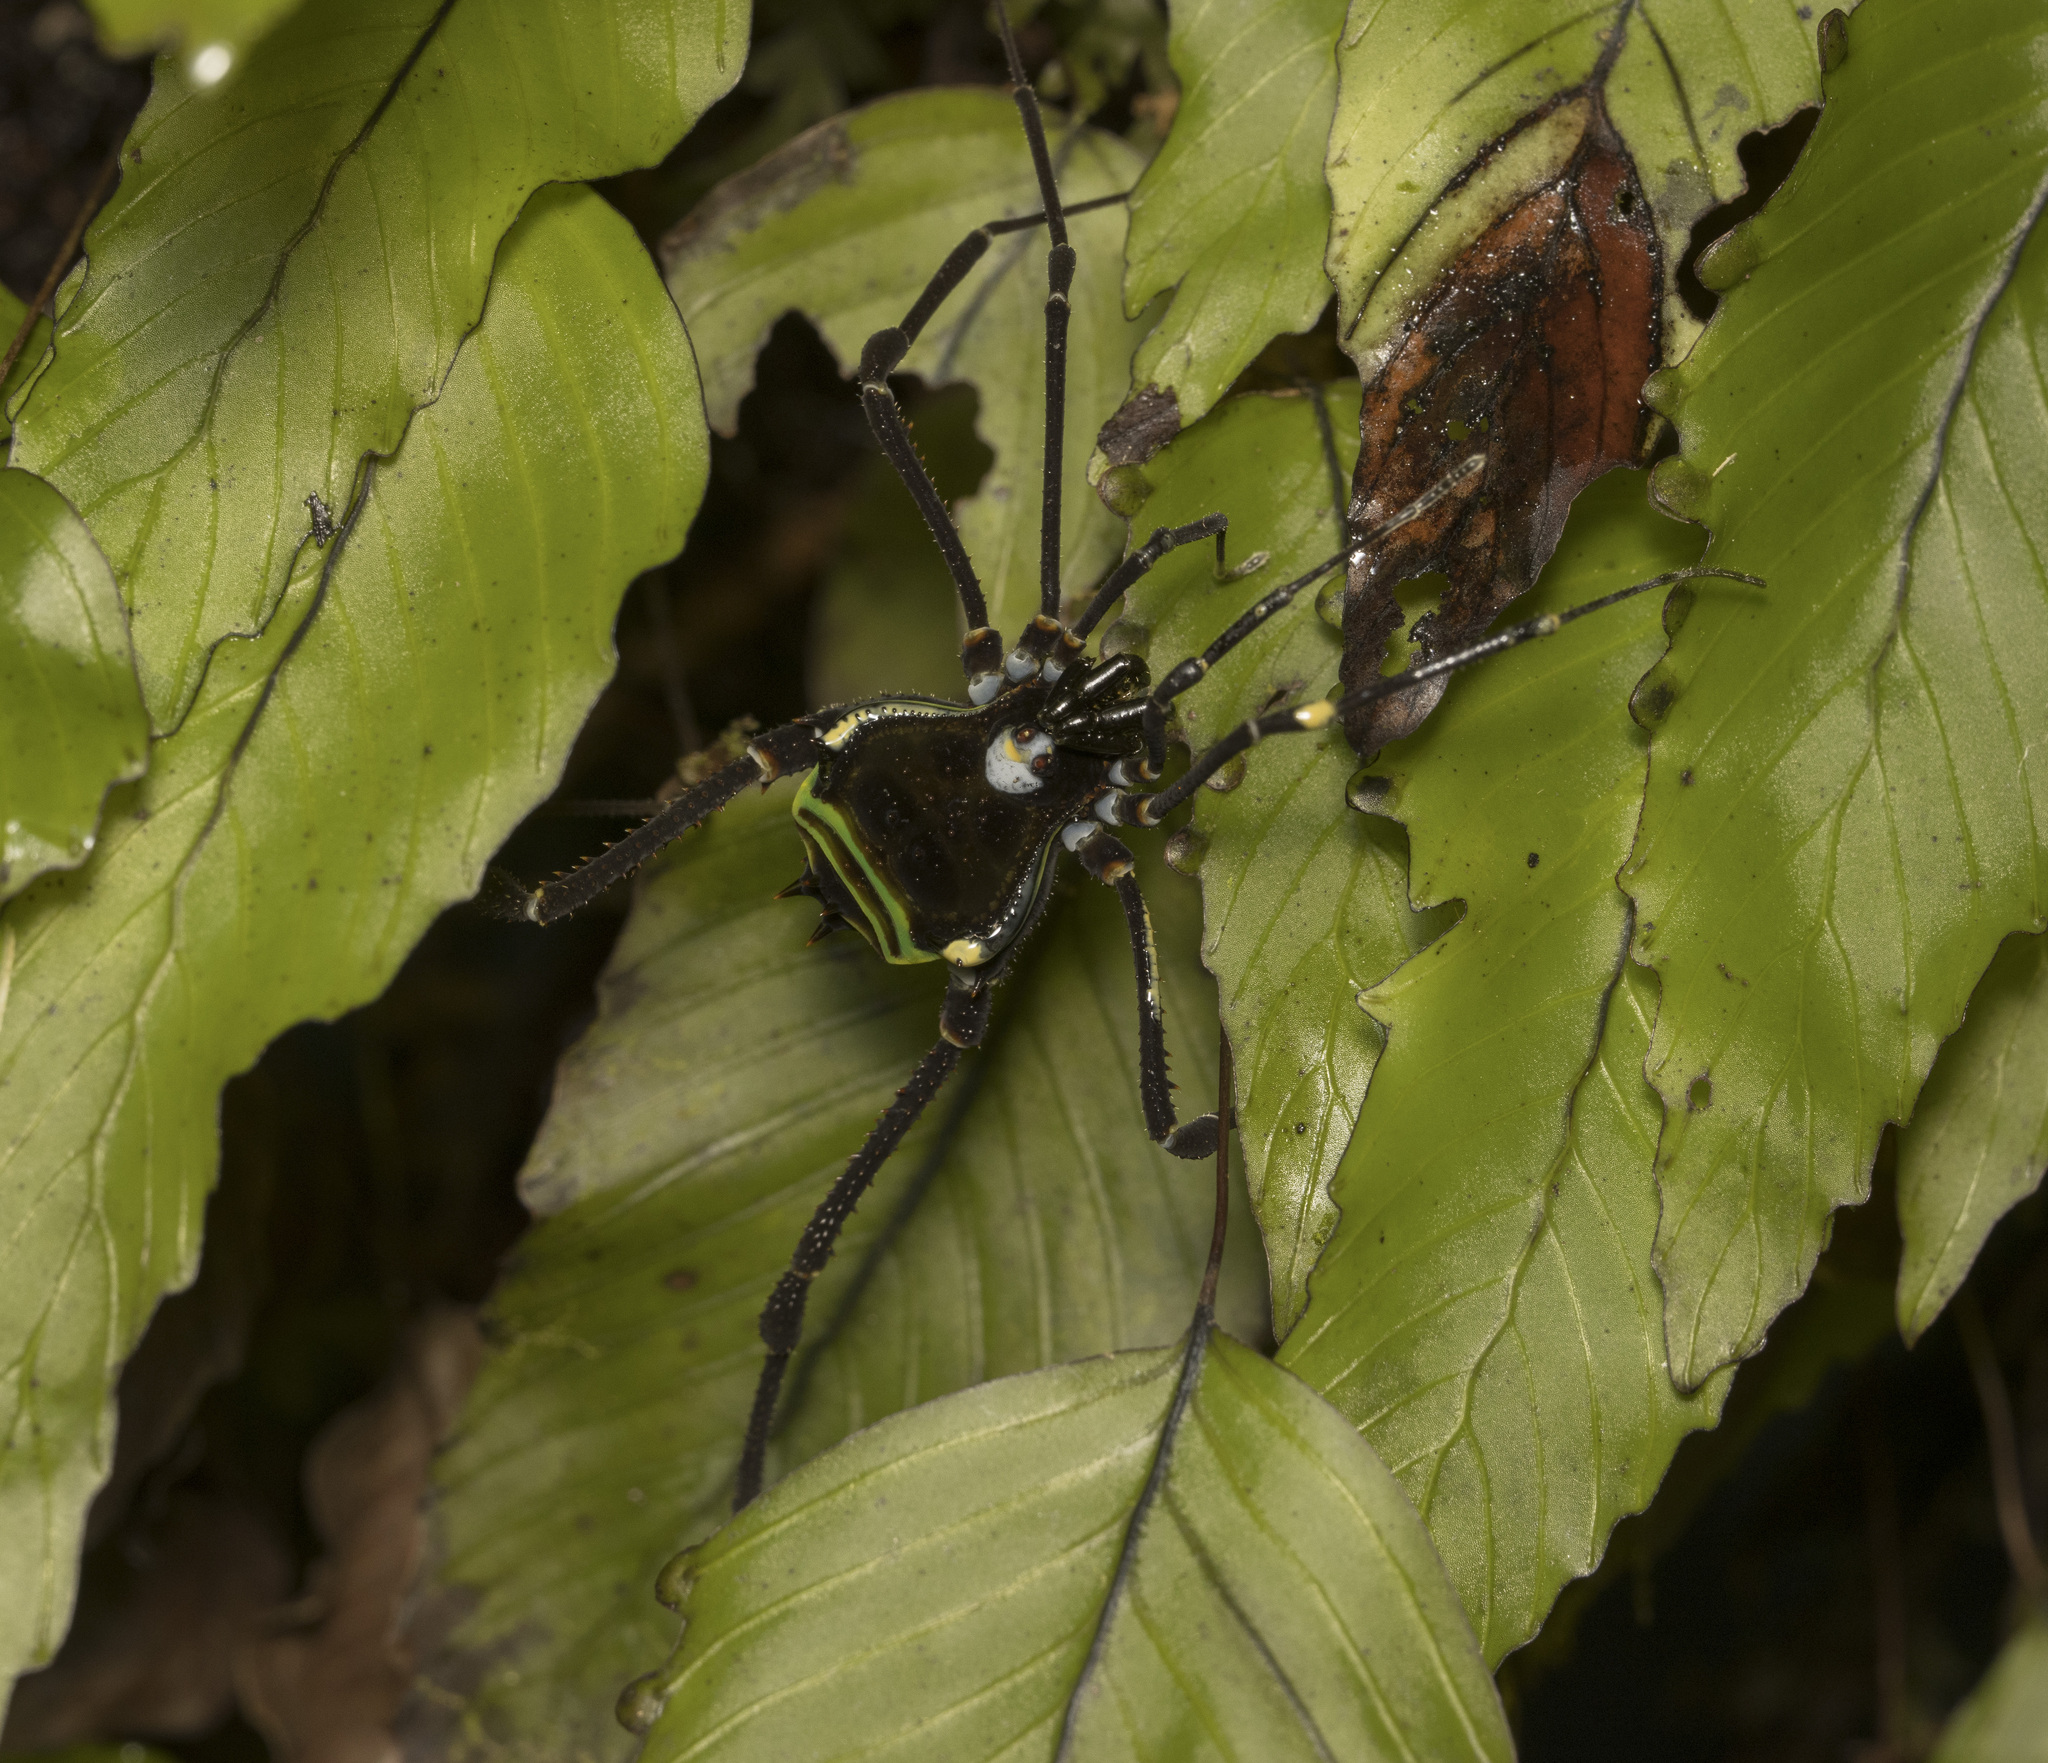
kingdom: Animalia
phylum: Arthropoda
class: Arachnida
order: Opiliones
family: Gonyleptidae
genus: Sadocus
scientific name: Sadocus polyacanthus
